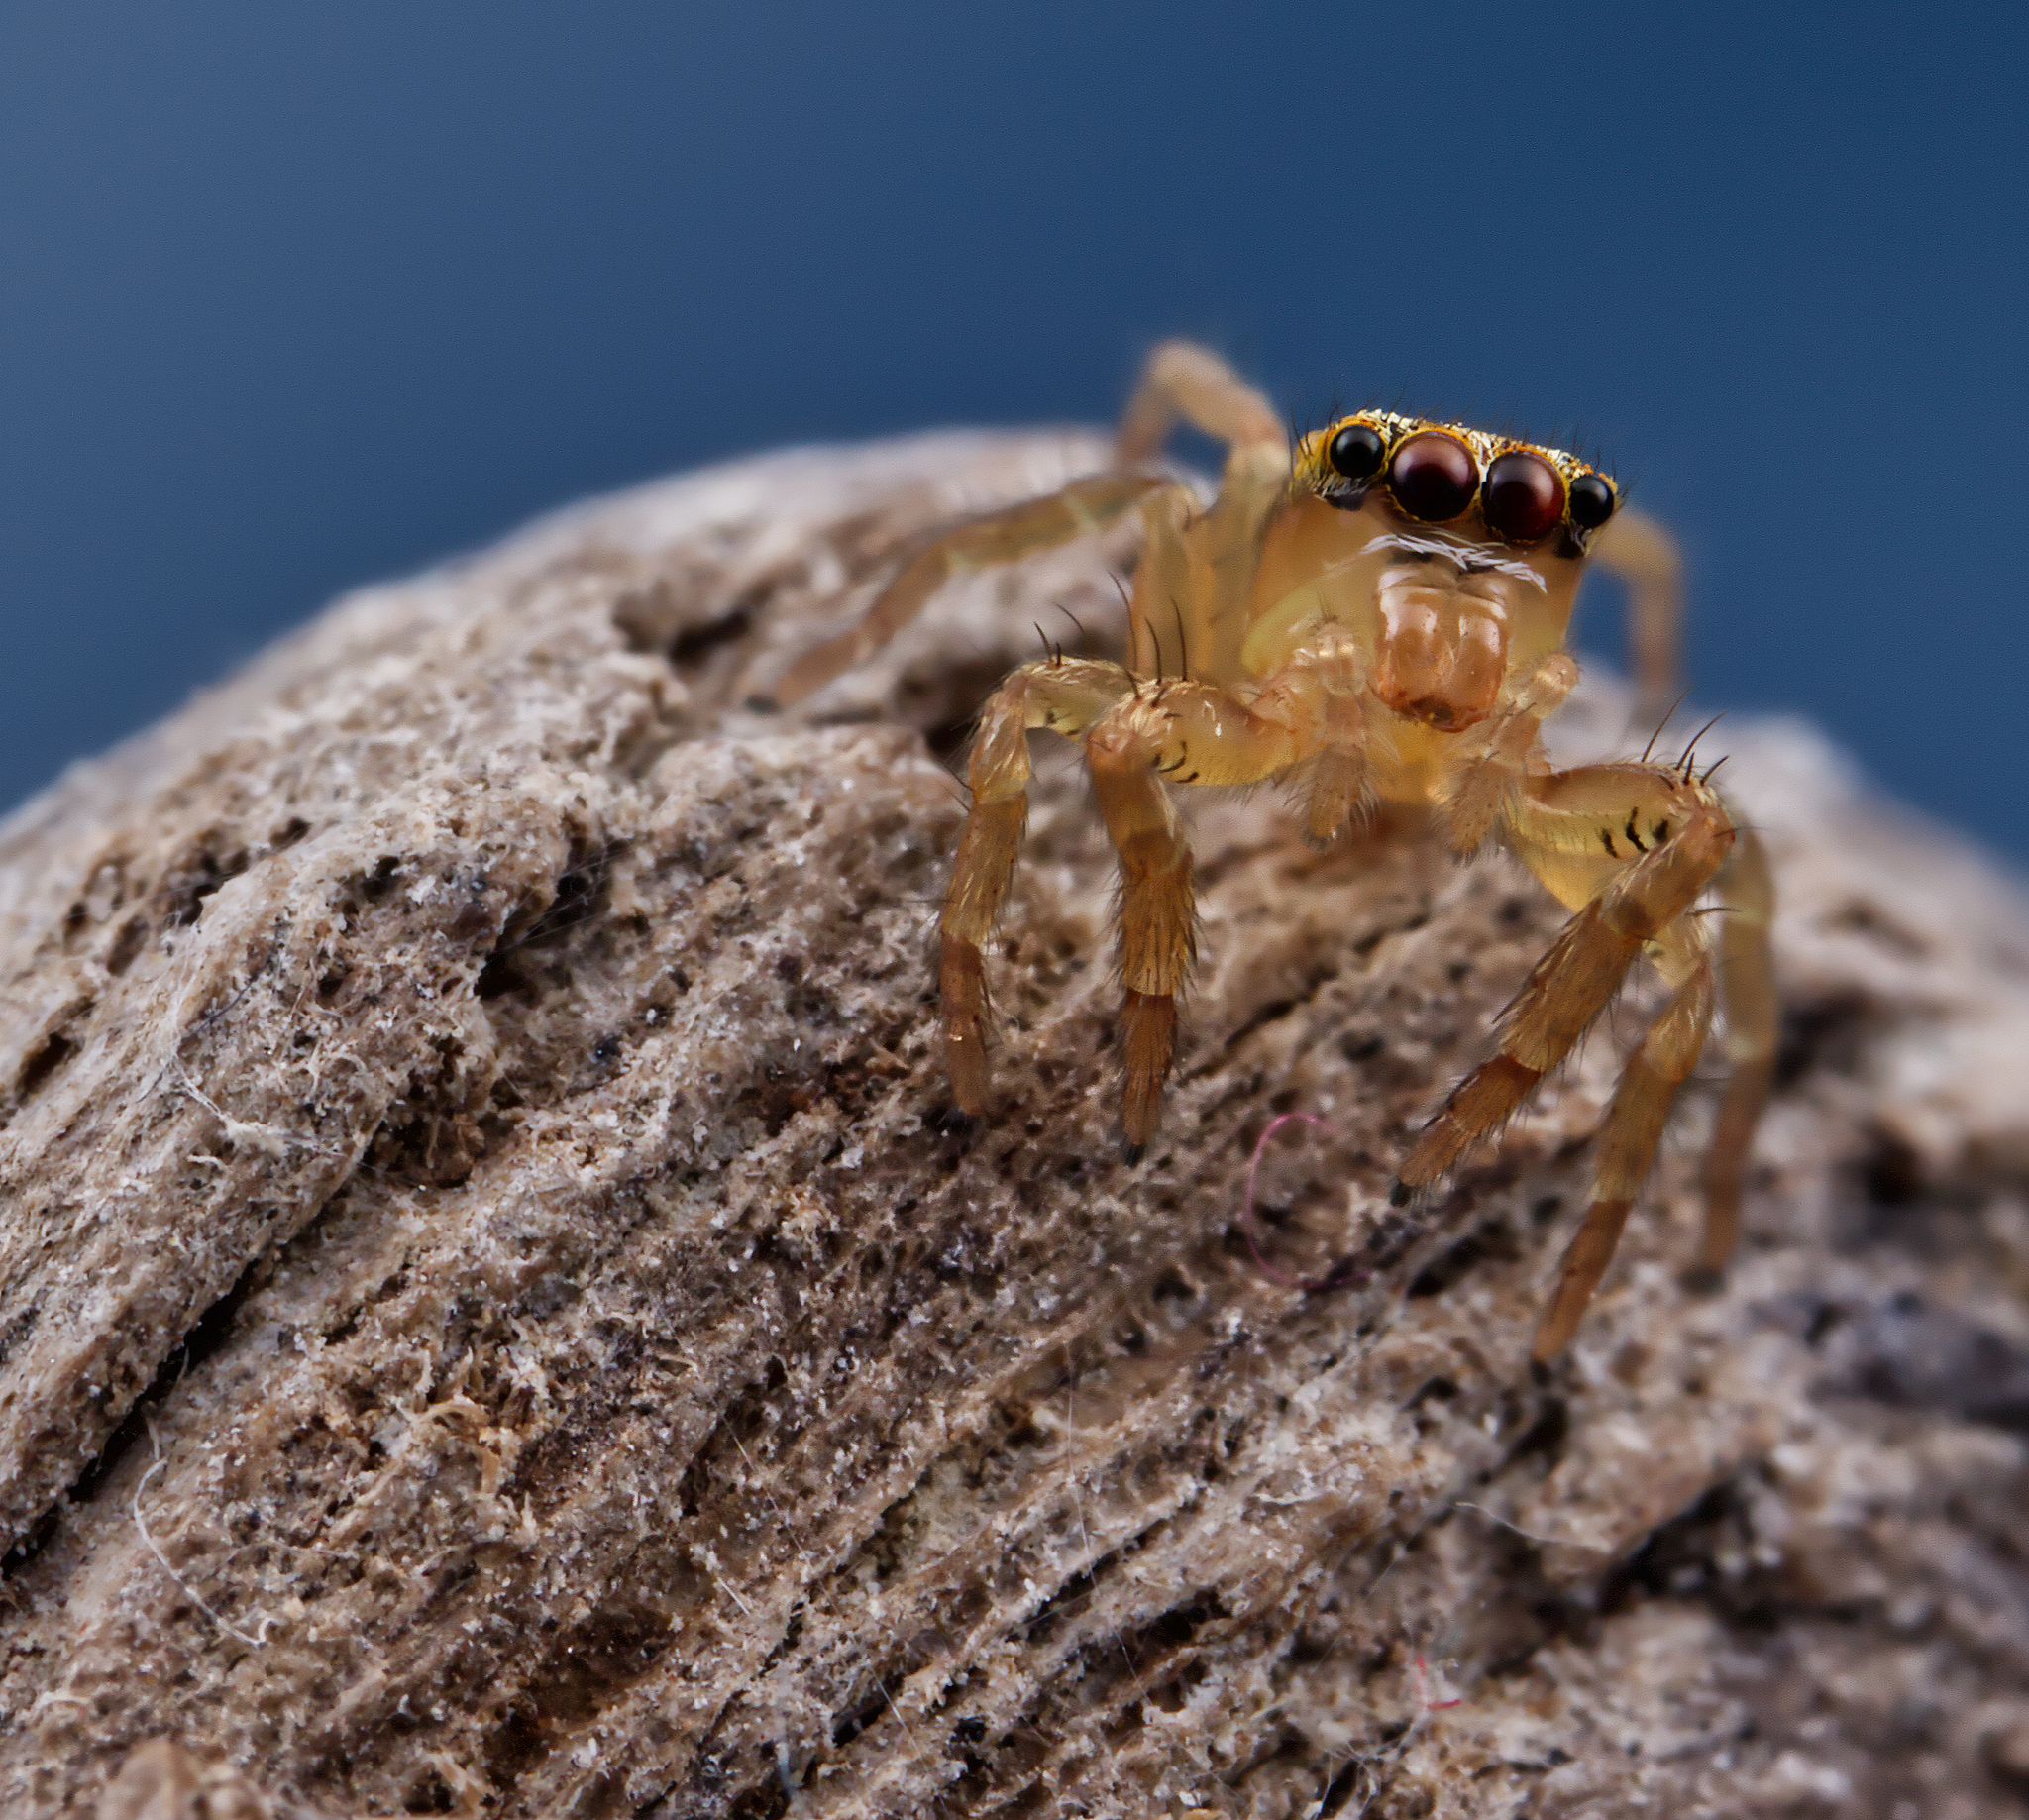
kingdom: Animalia
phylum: Arthropoda
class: Arachnida
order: Araneae
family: Salticidae
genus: Maevia
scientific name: Maevia inclemens
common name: Dimorphic jumper
